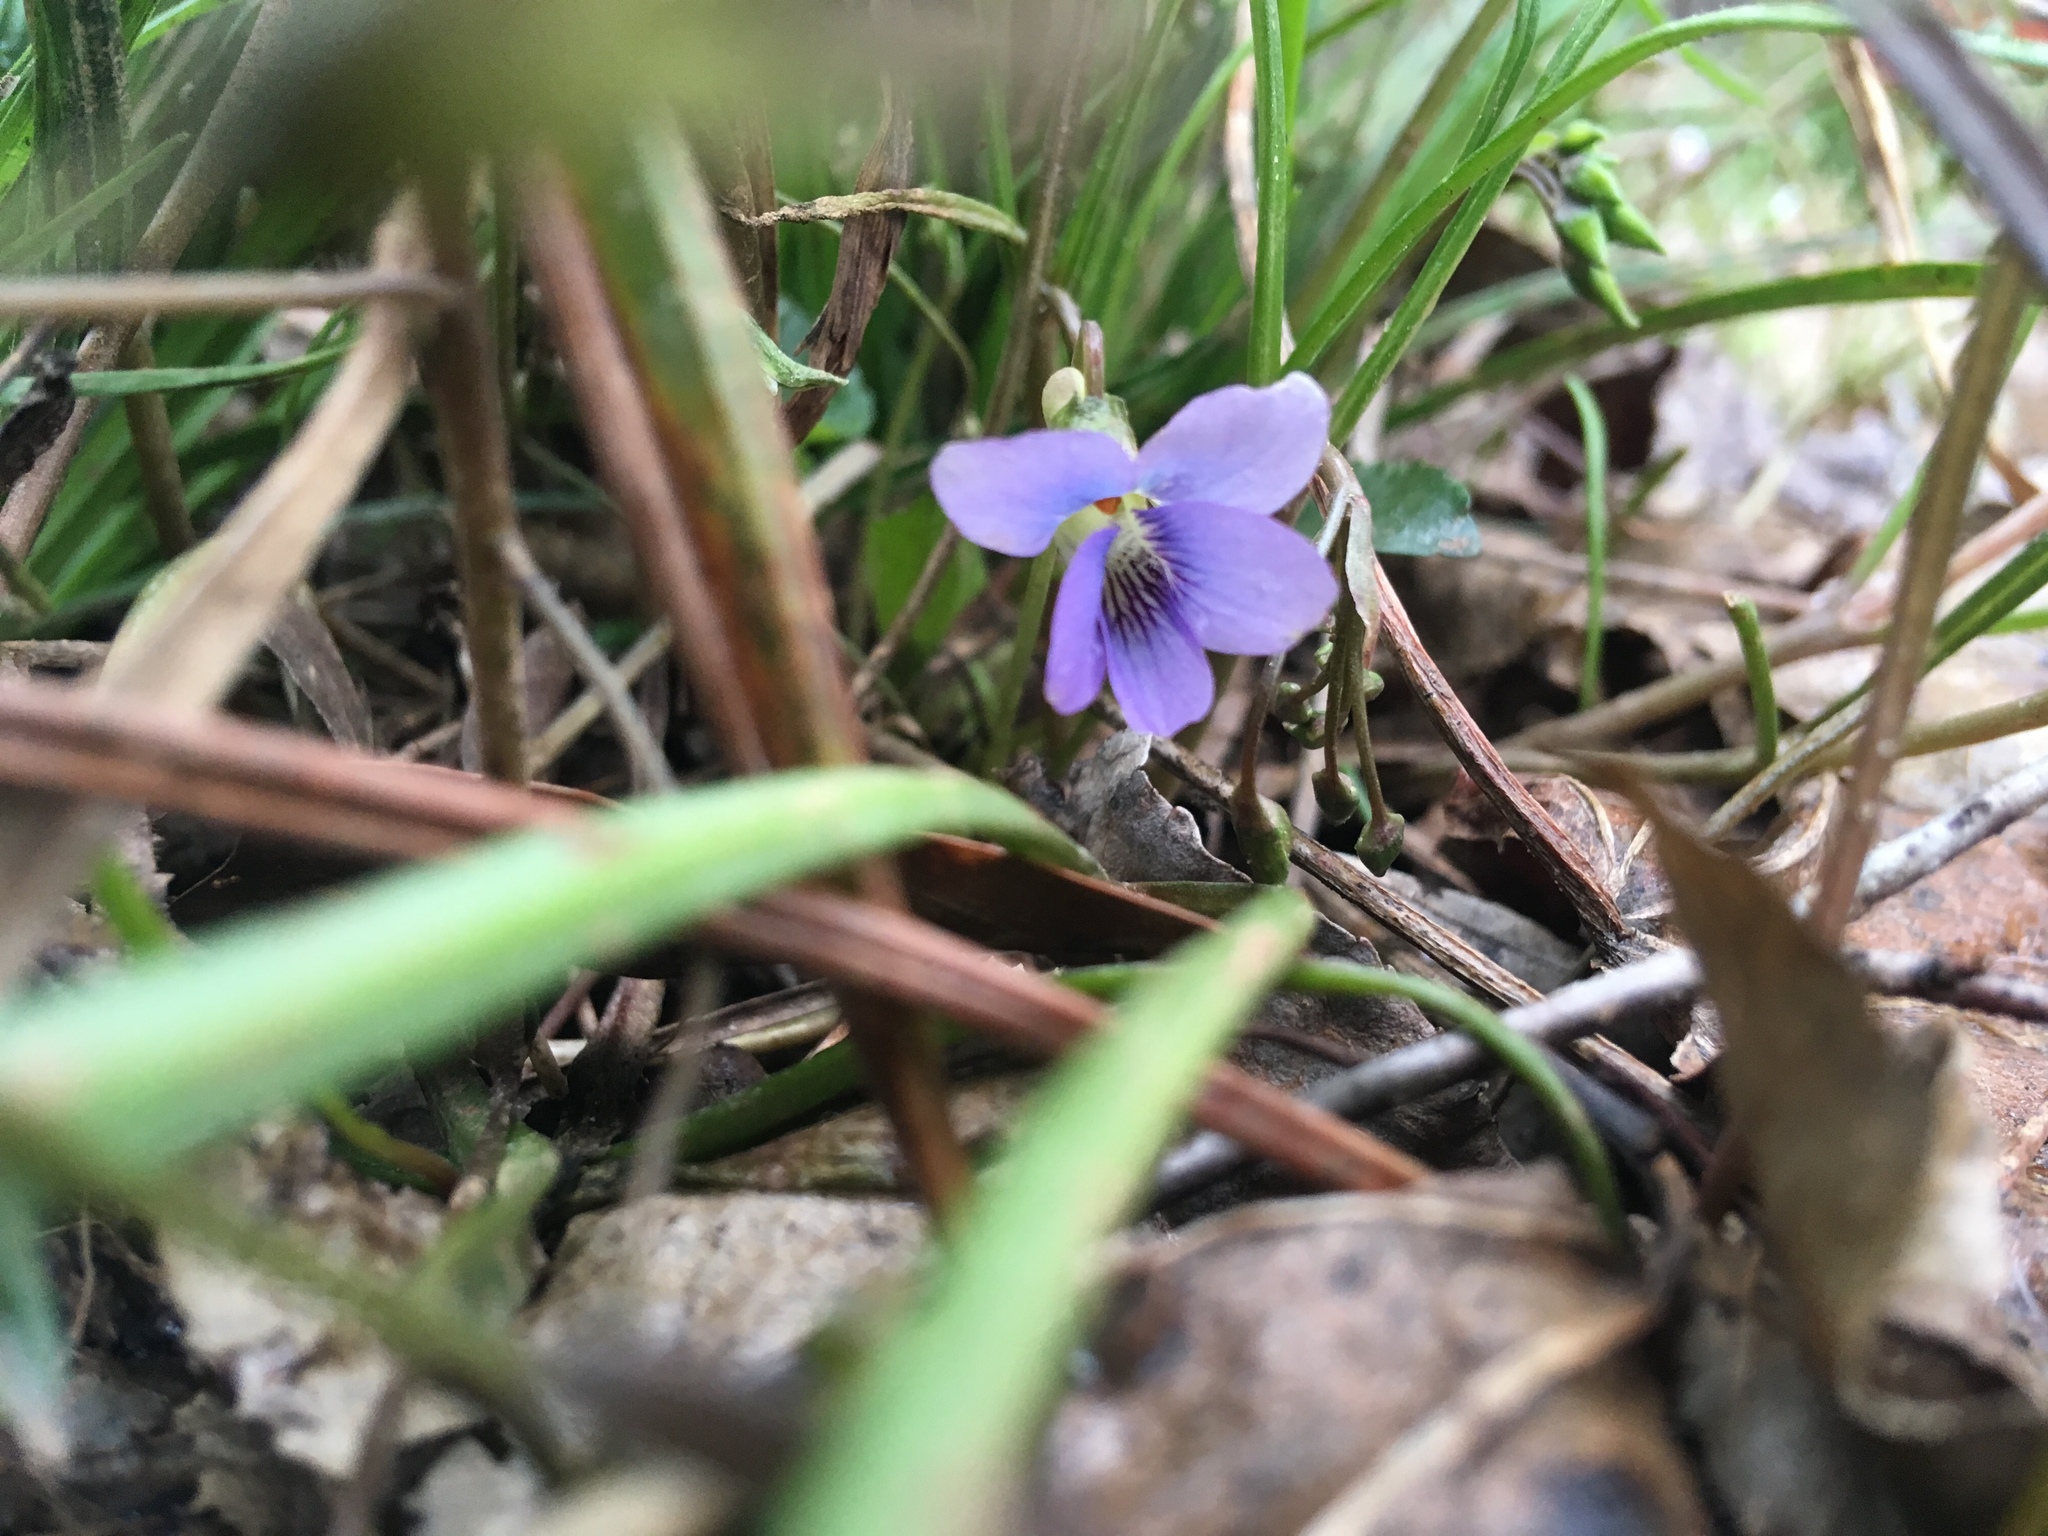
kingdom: Plantae
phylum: Tracheophyta
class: Magnoliopsida
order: Malpighiales
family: Violaceae
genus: Viola
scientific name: Viola sororia
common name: Dooryard violet
